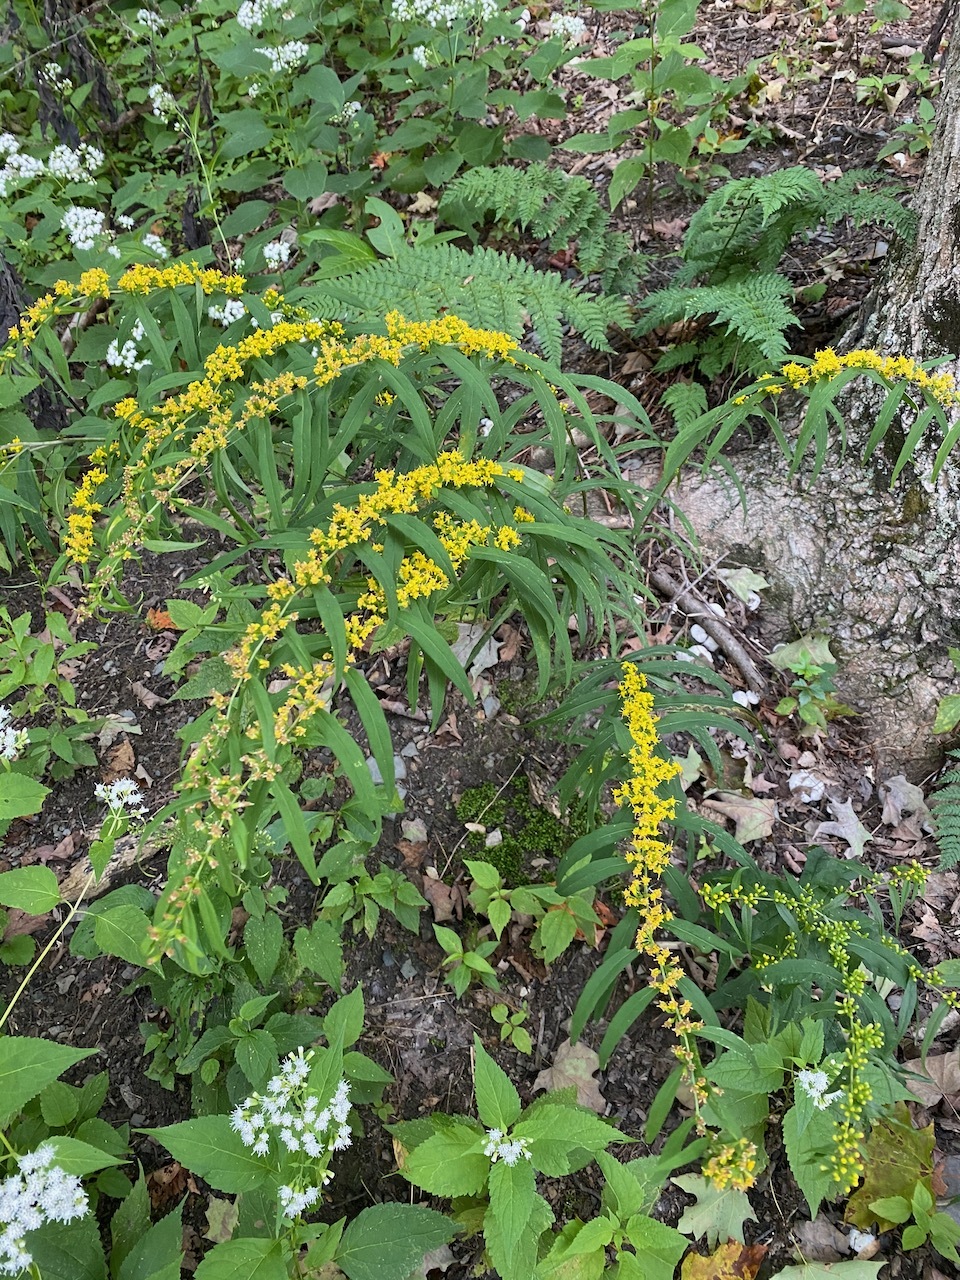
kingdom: Plantae
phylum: Tracheophyta
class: Magnoliopsida
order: Asterales
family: Asteraceae
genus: Solidago
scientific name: Solidago caesia
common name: Woodland goldenrod
